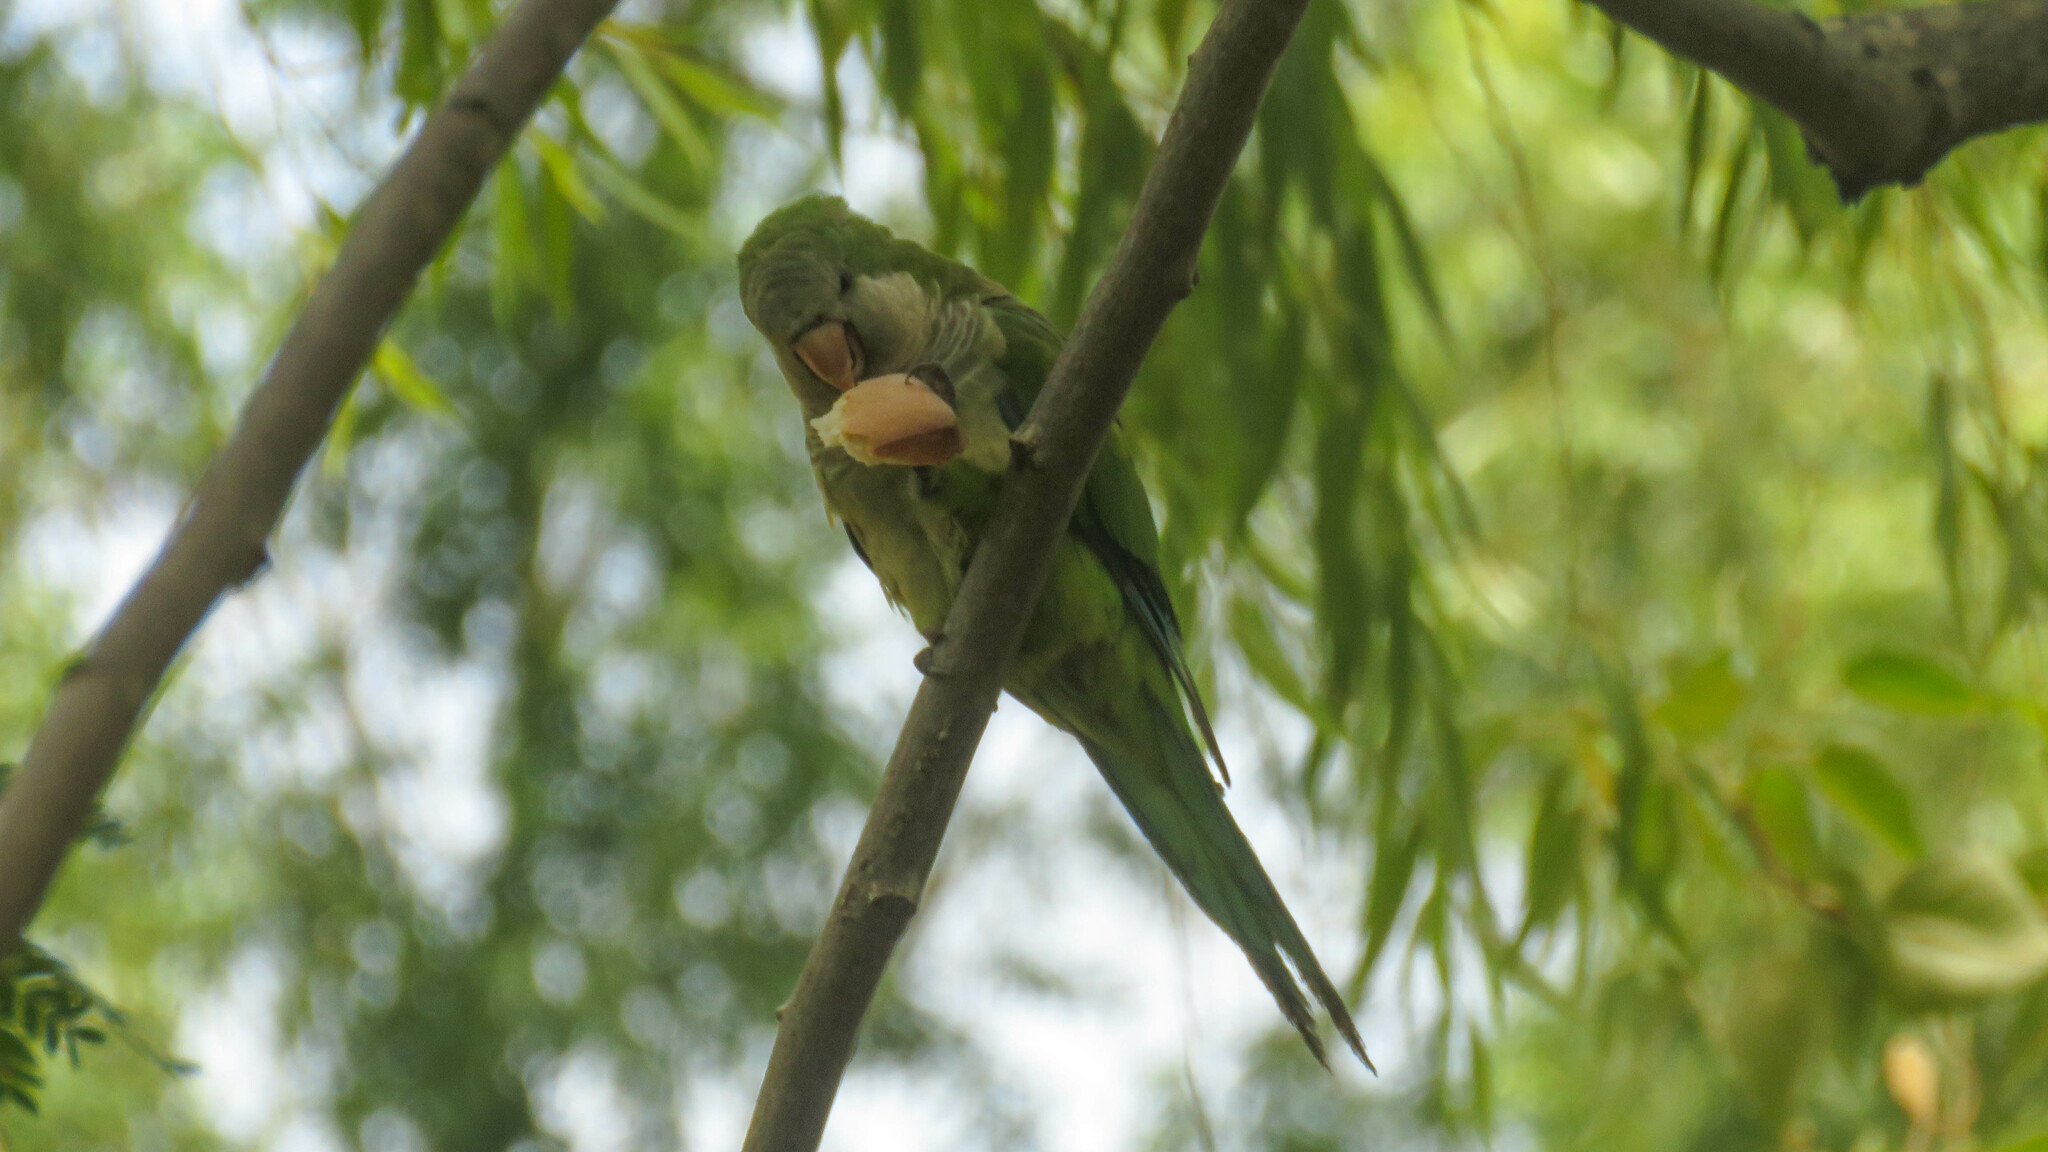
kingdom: Animalia
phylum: Chordata
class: Aves
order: Psittaciformes
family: Psittacidae
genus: Myiopsitta
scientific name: Myiopsitta monachus
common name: Monk parakeet
